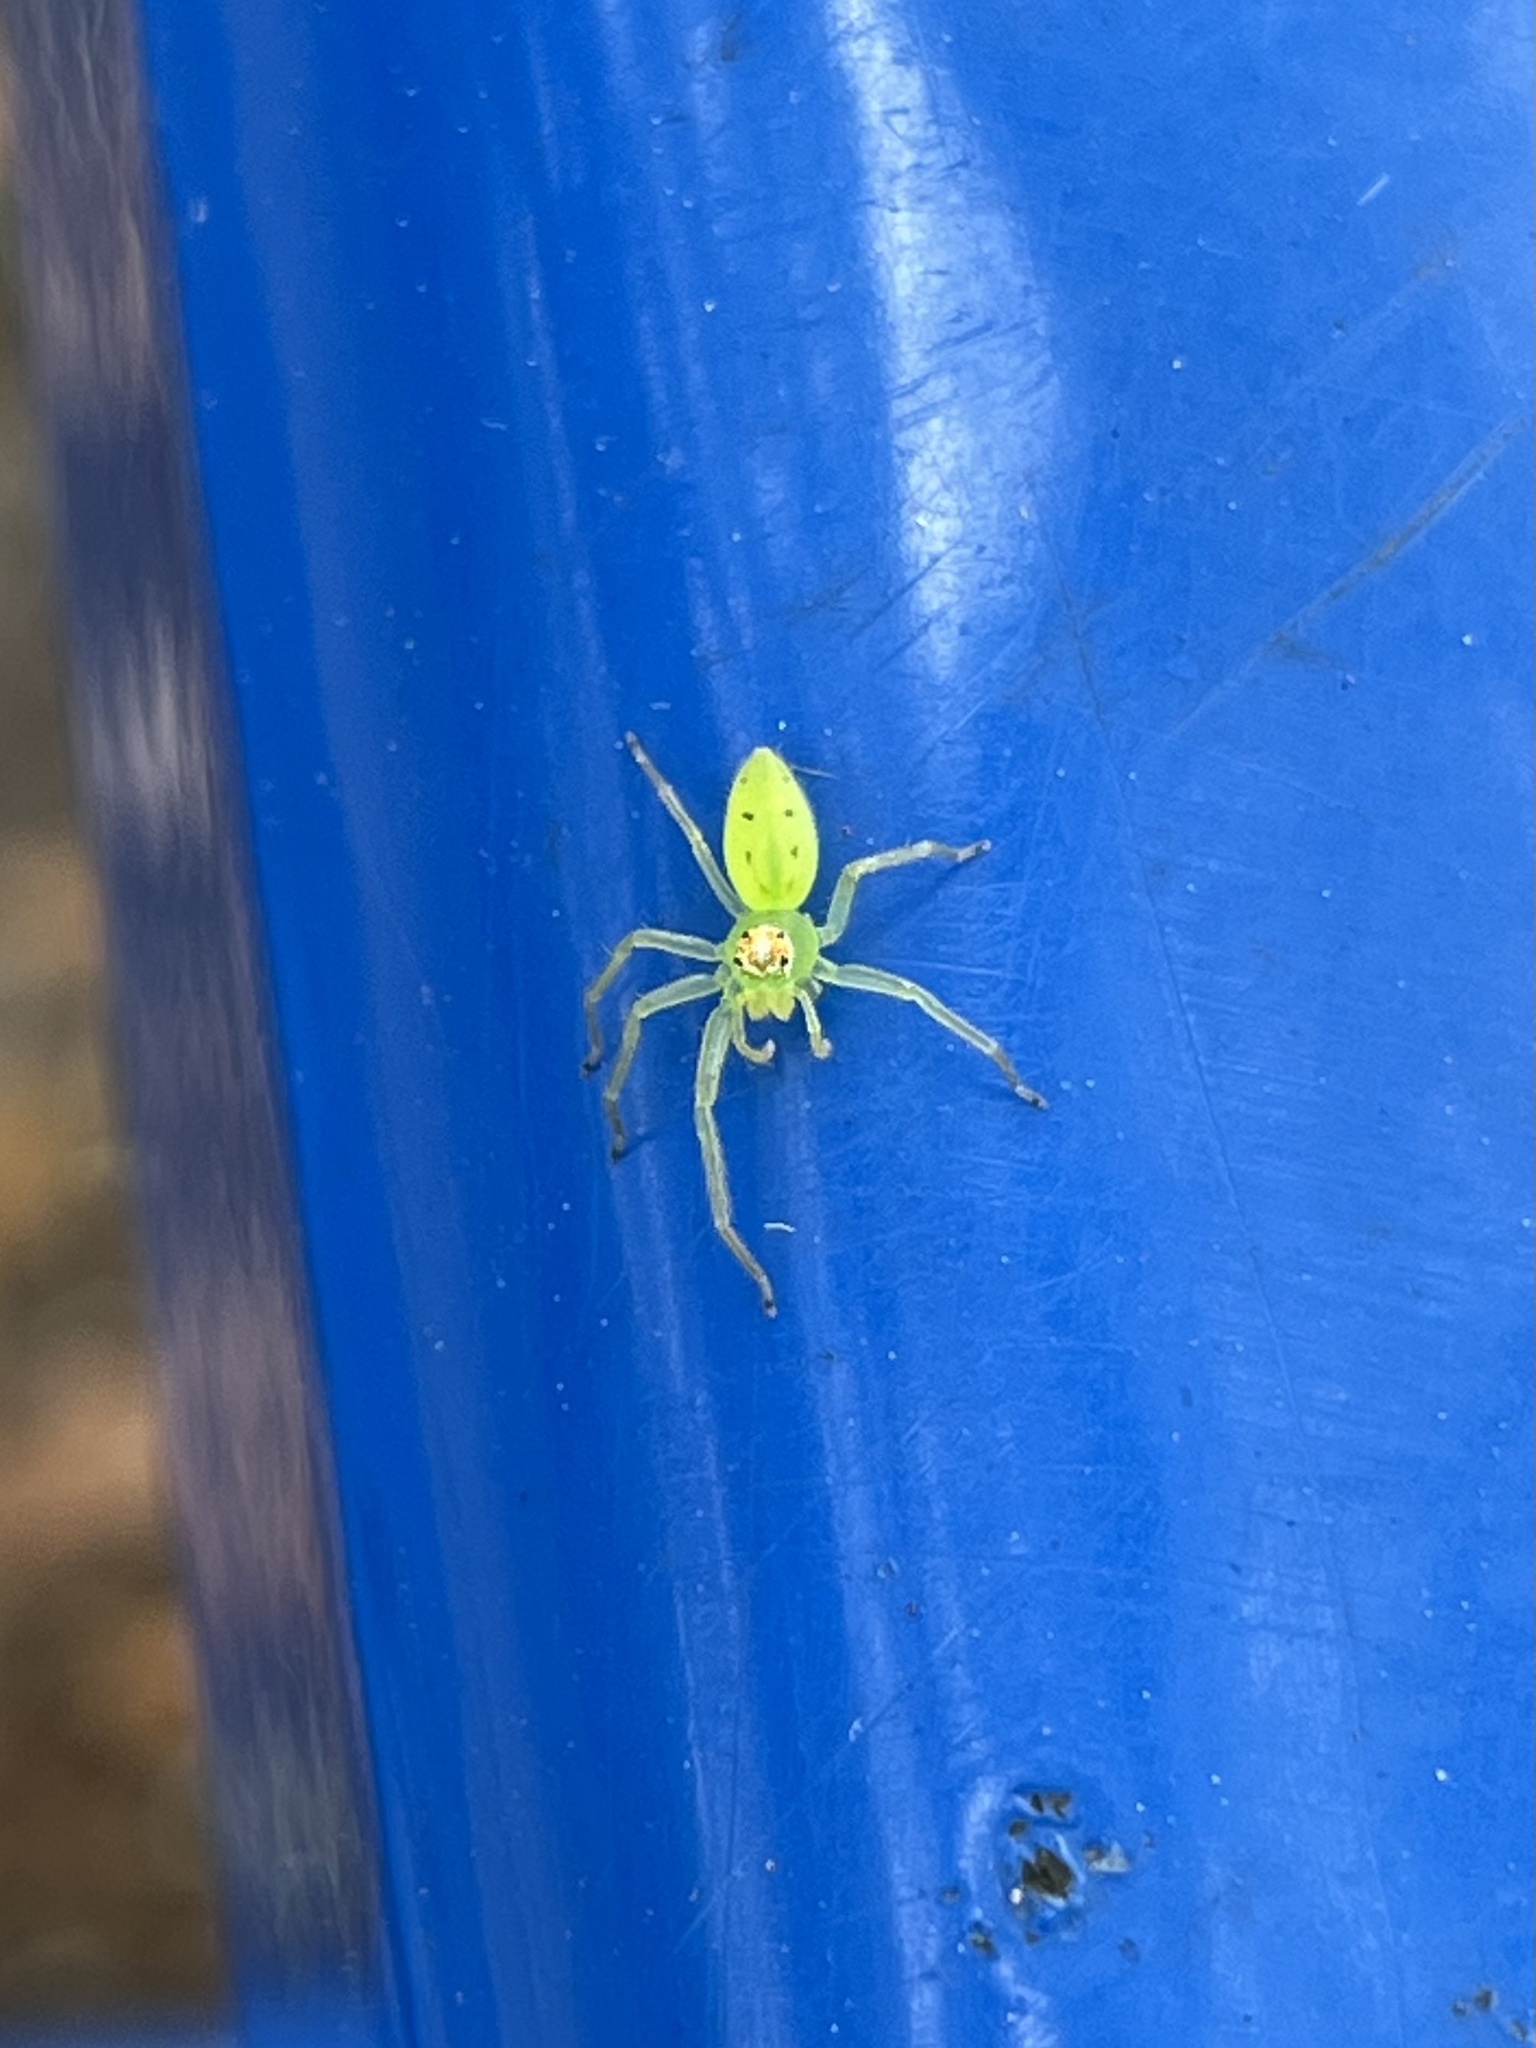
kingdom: Animalia
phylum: Arthropoda
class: Arachnida
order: Araneae
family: Salticidae
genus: Lyssomanes
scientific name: Lyssomanes viridis
